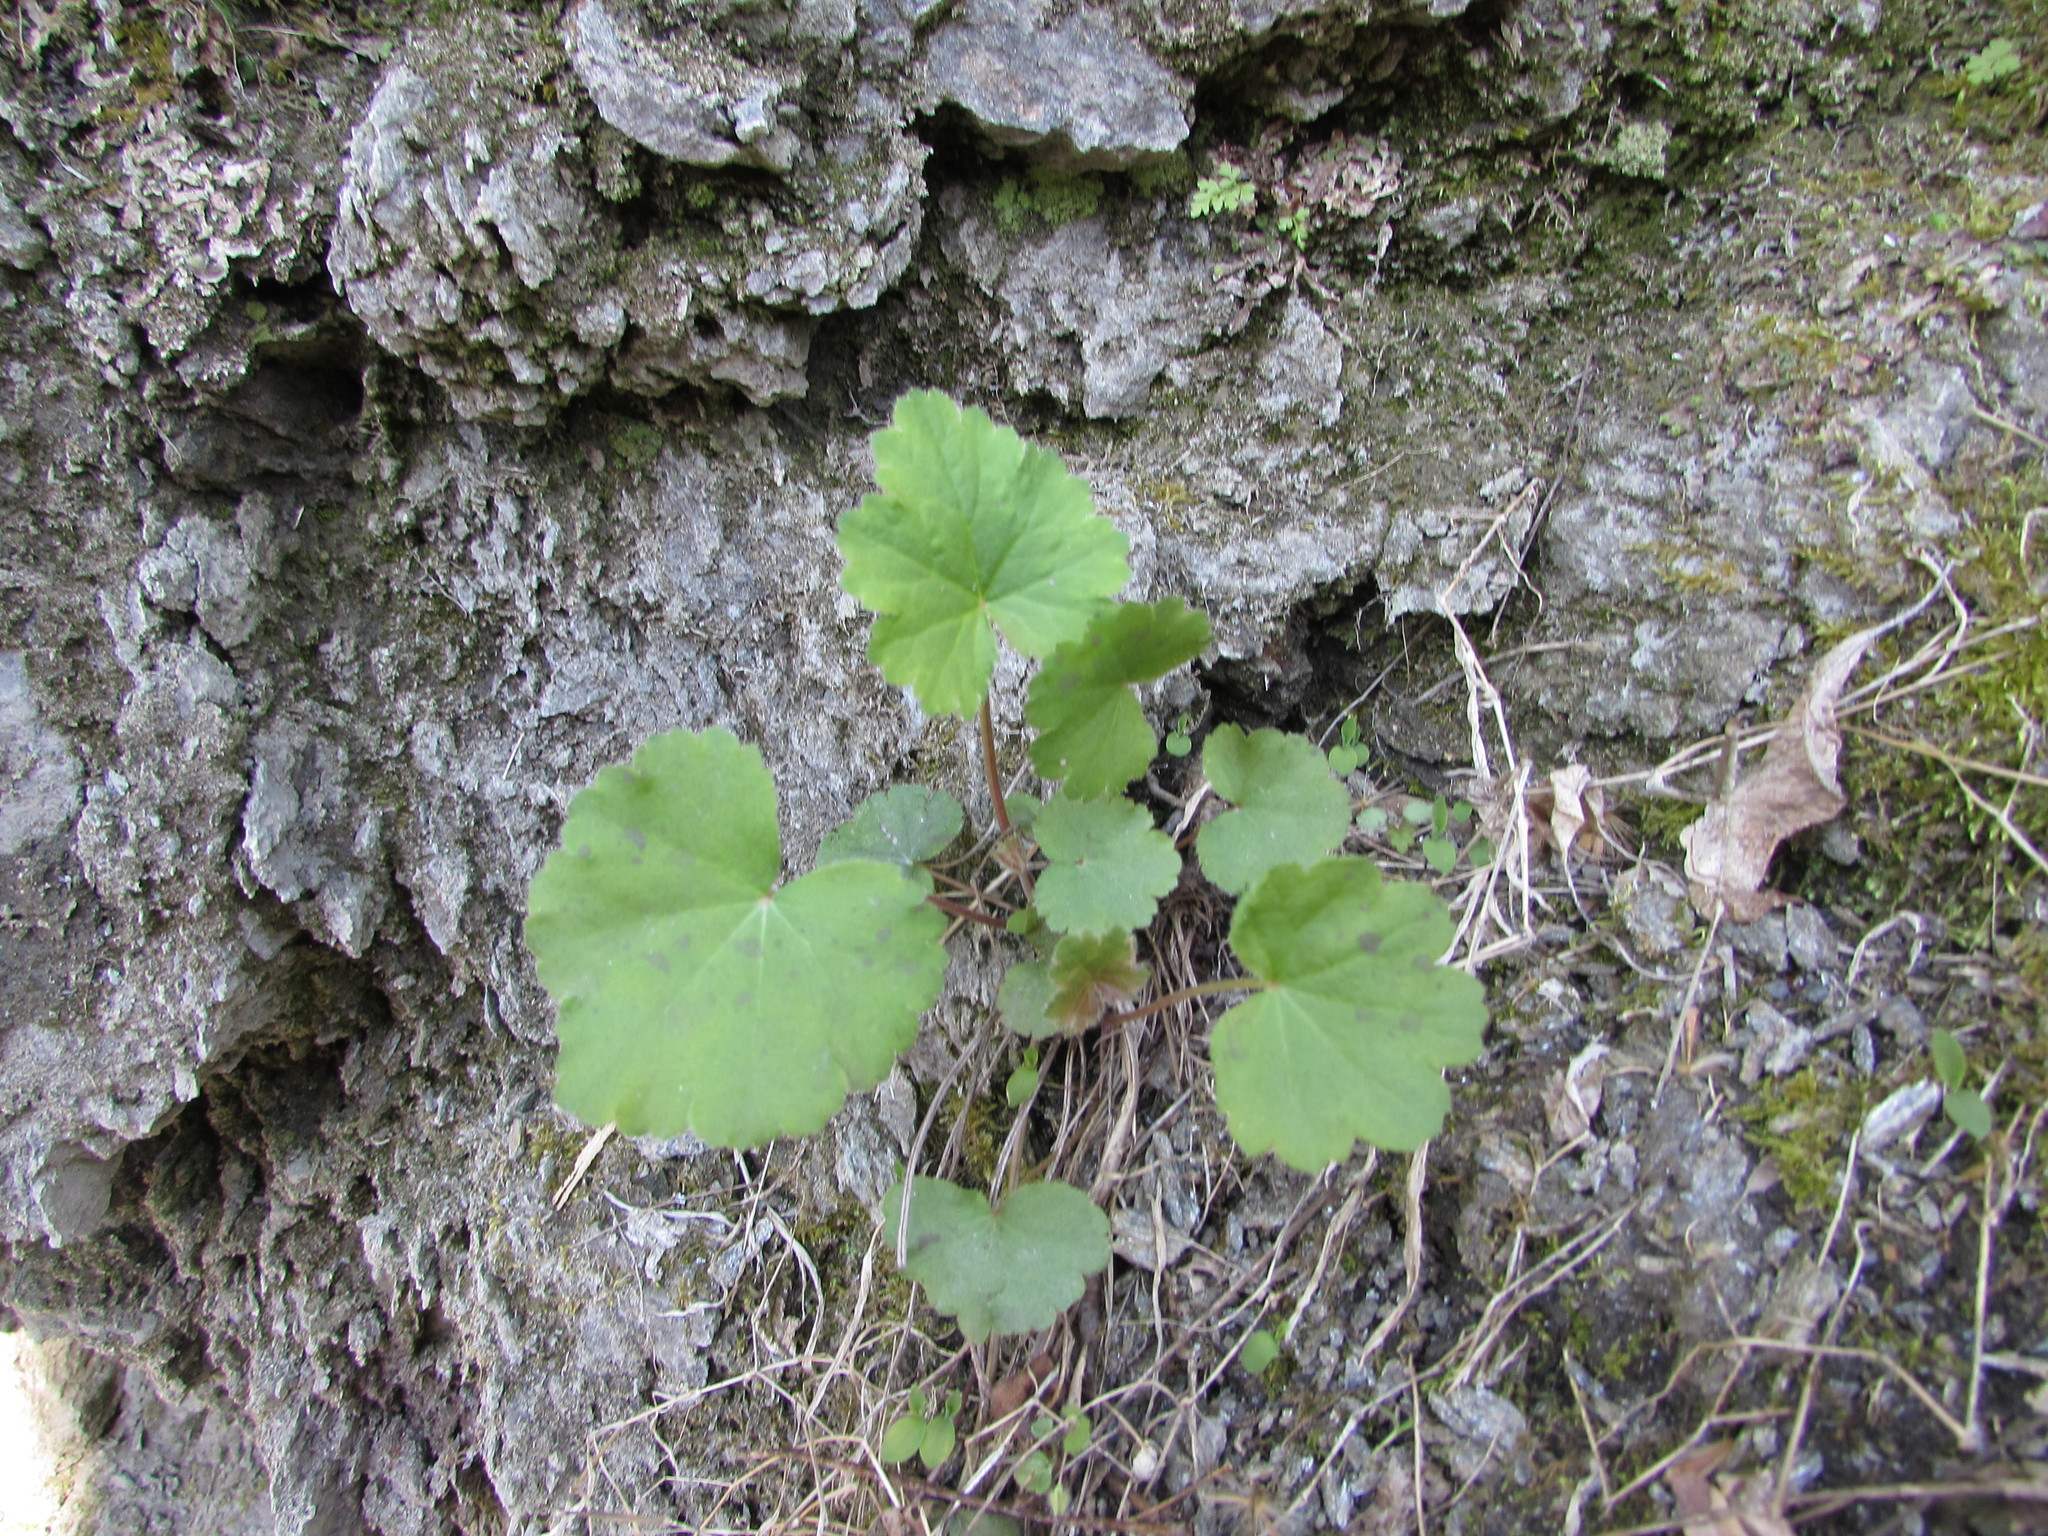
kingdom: Plantae
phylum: Tracheophyta
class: Magnoliopsida
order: Saxifragales
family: Saxifragaceae
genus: Heuchera
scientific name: Heuchera americana
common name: Alumroot
